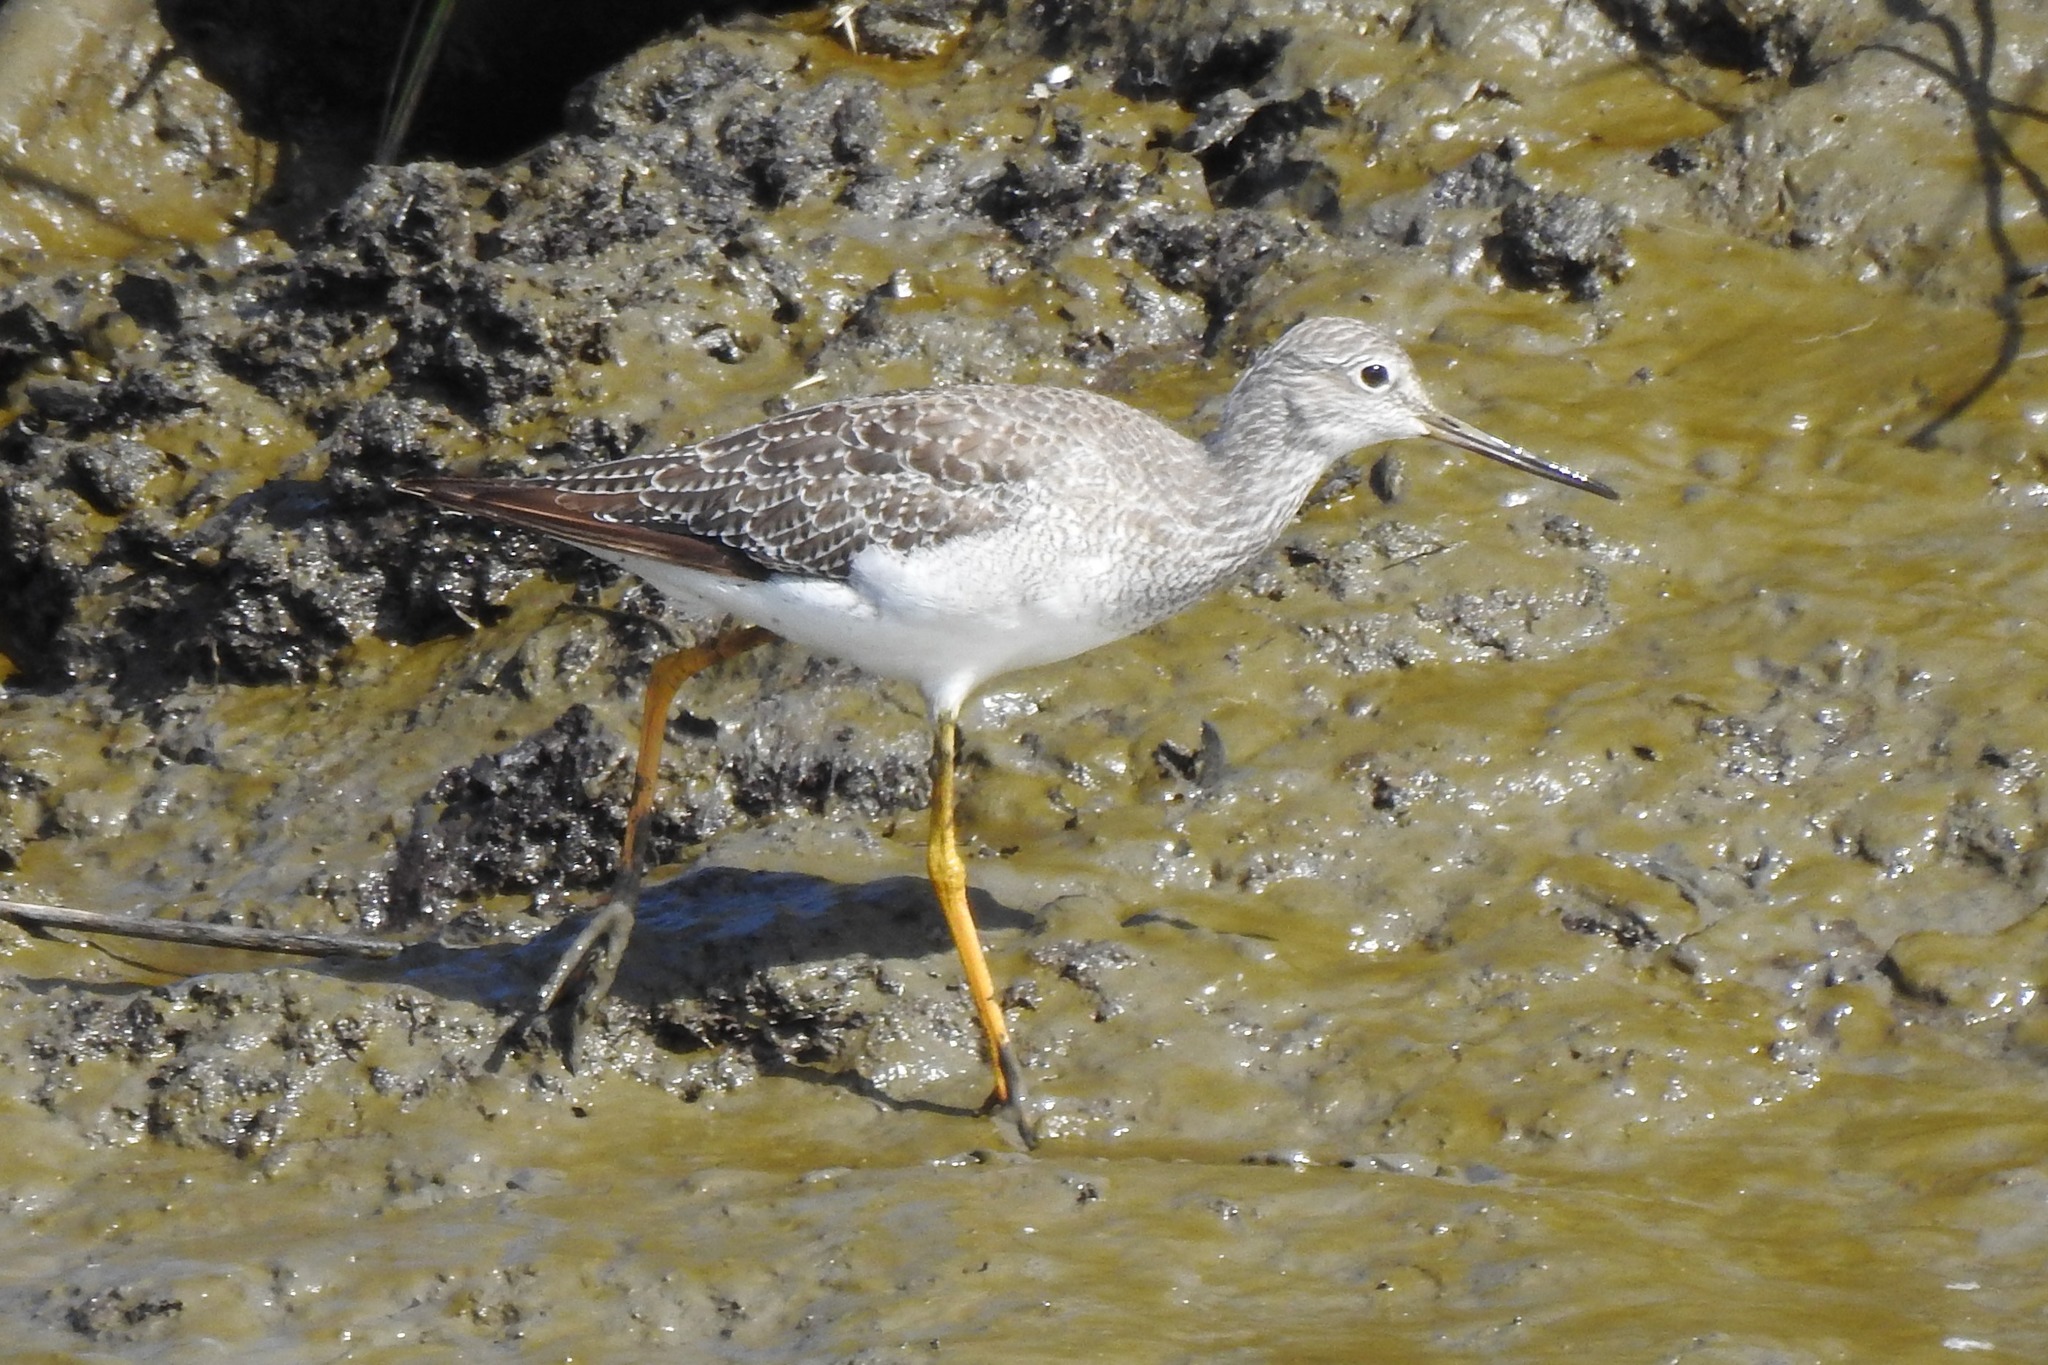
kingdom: Animalia
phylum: Chordata
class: Aves
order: Charadriiformes
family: Scolopacidae
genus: Tringa
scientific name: Tringa melanoleuca
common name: Greater yellowlegs
